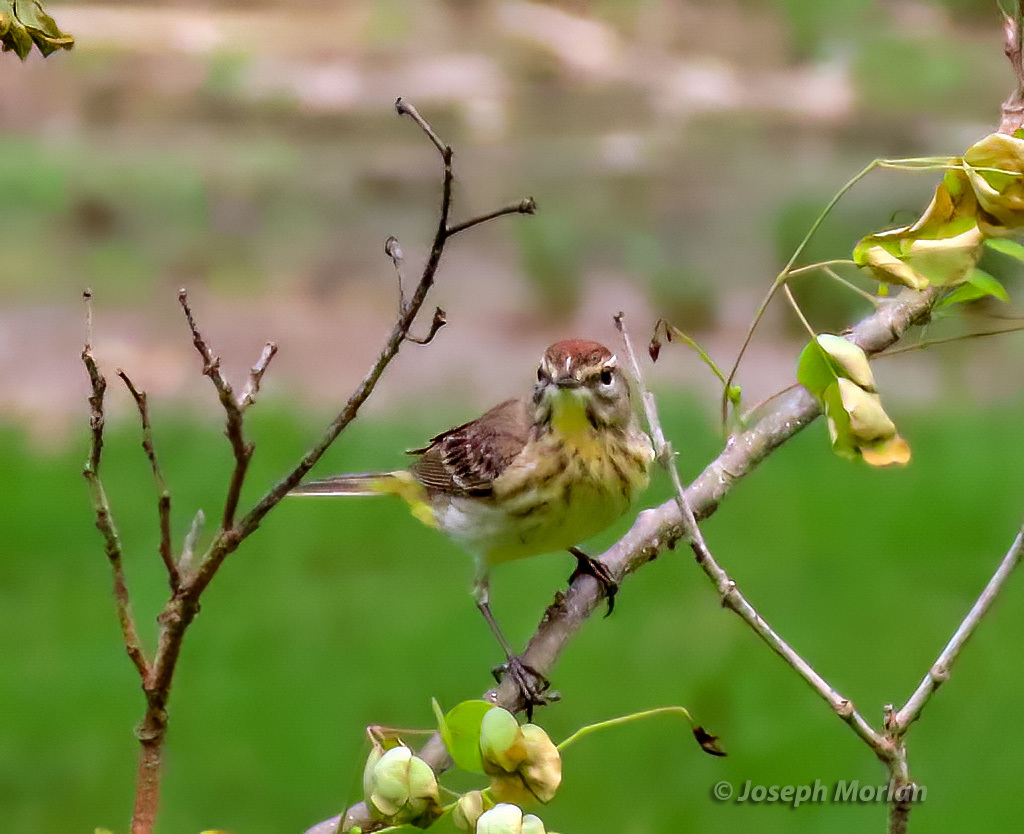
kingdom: Animalia
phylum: Chordata
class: Aves
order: Passeriformes
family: Parulidae
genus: Setophaga
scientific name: Setophaga palmarum
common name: Palm warbler
